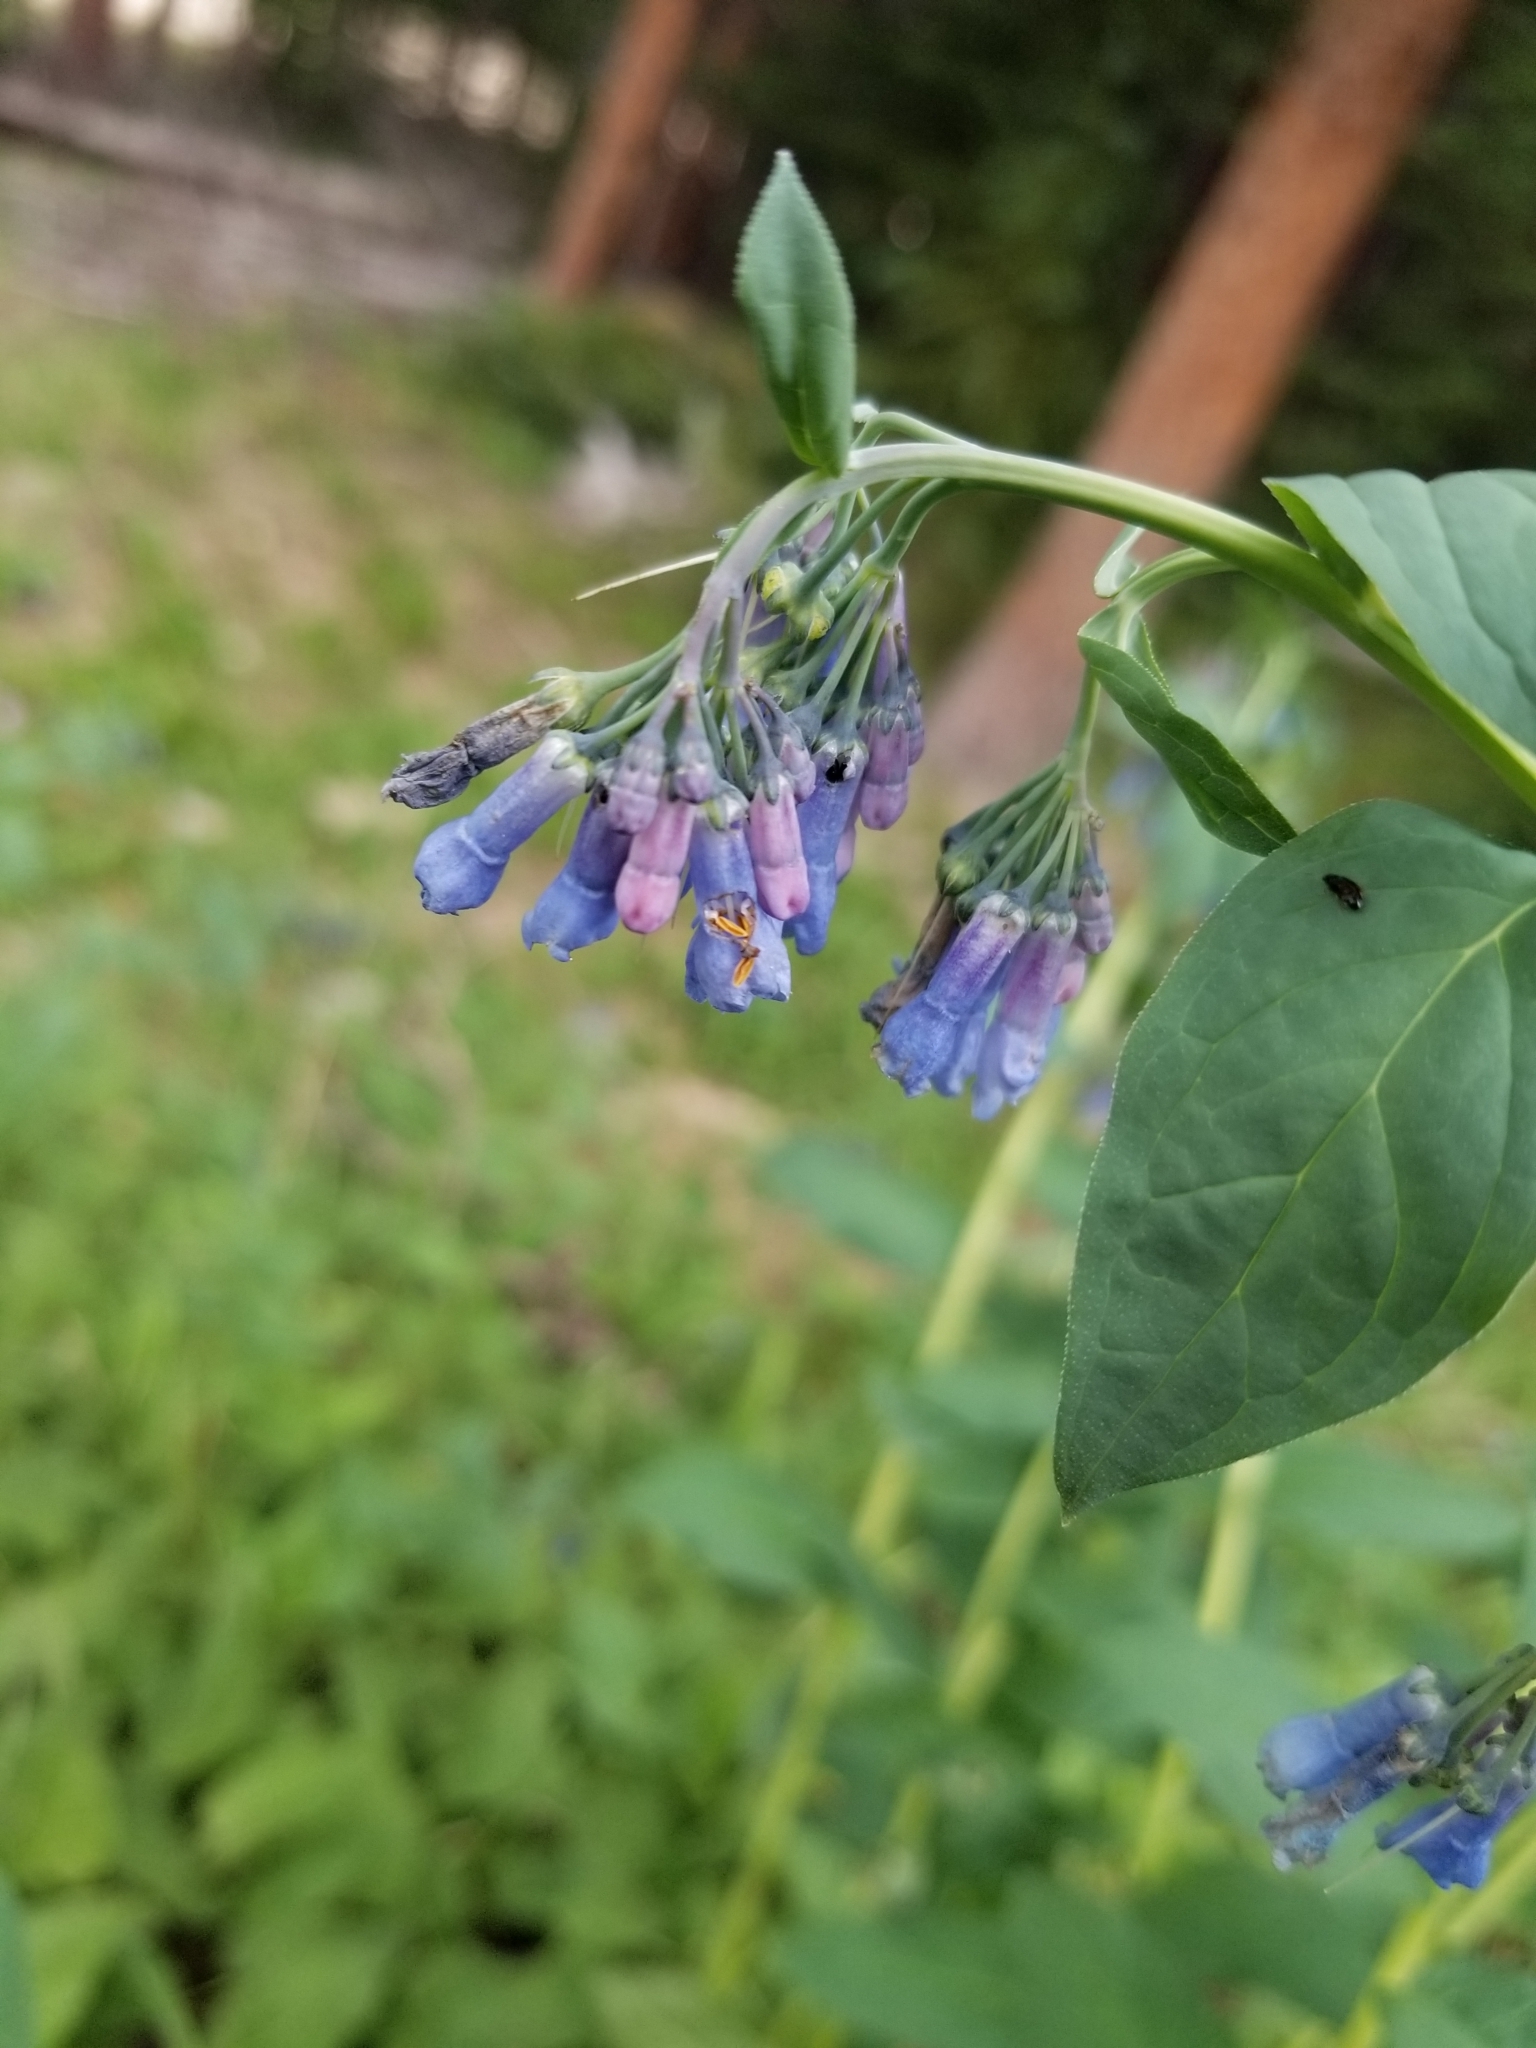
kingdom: Plantae
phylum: Tracheophyta
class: Magnoliopsida
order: Boraginales
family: Boraginaceae
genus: Mertensia
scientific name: Mertensia ciliata
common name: Tall chiming-bells
